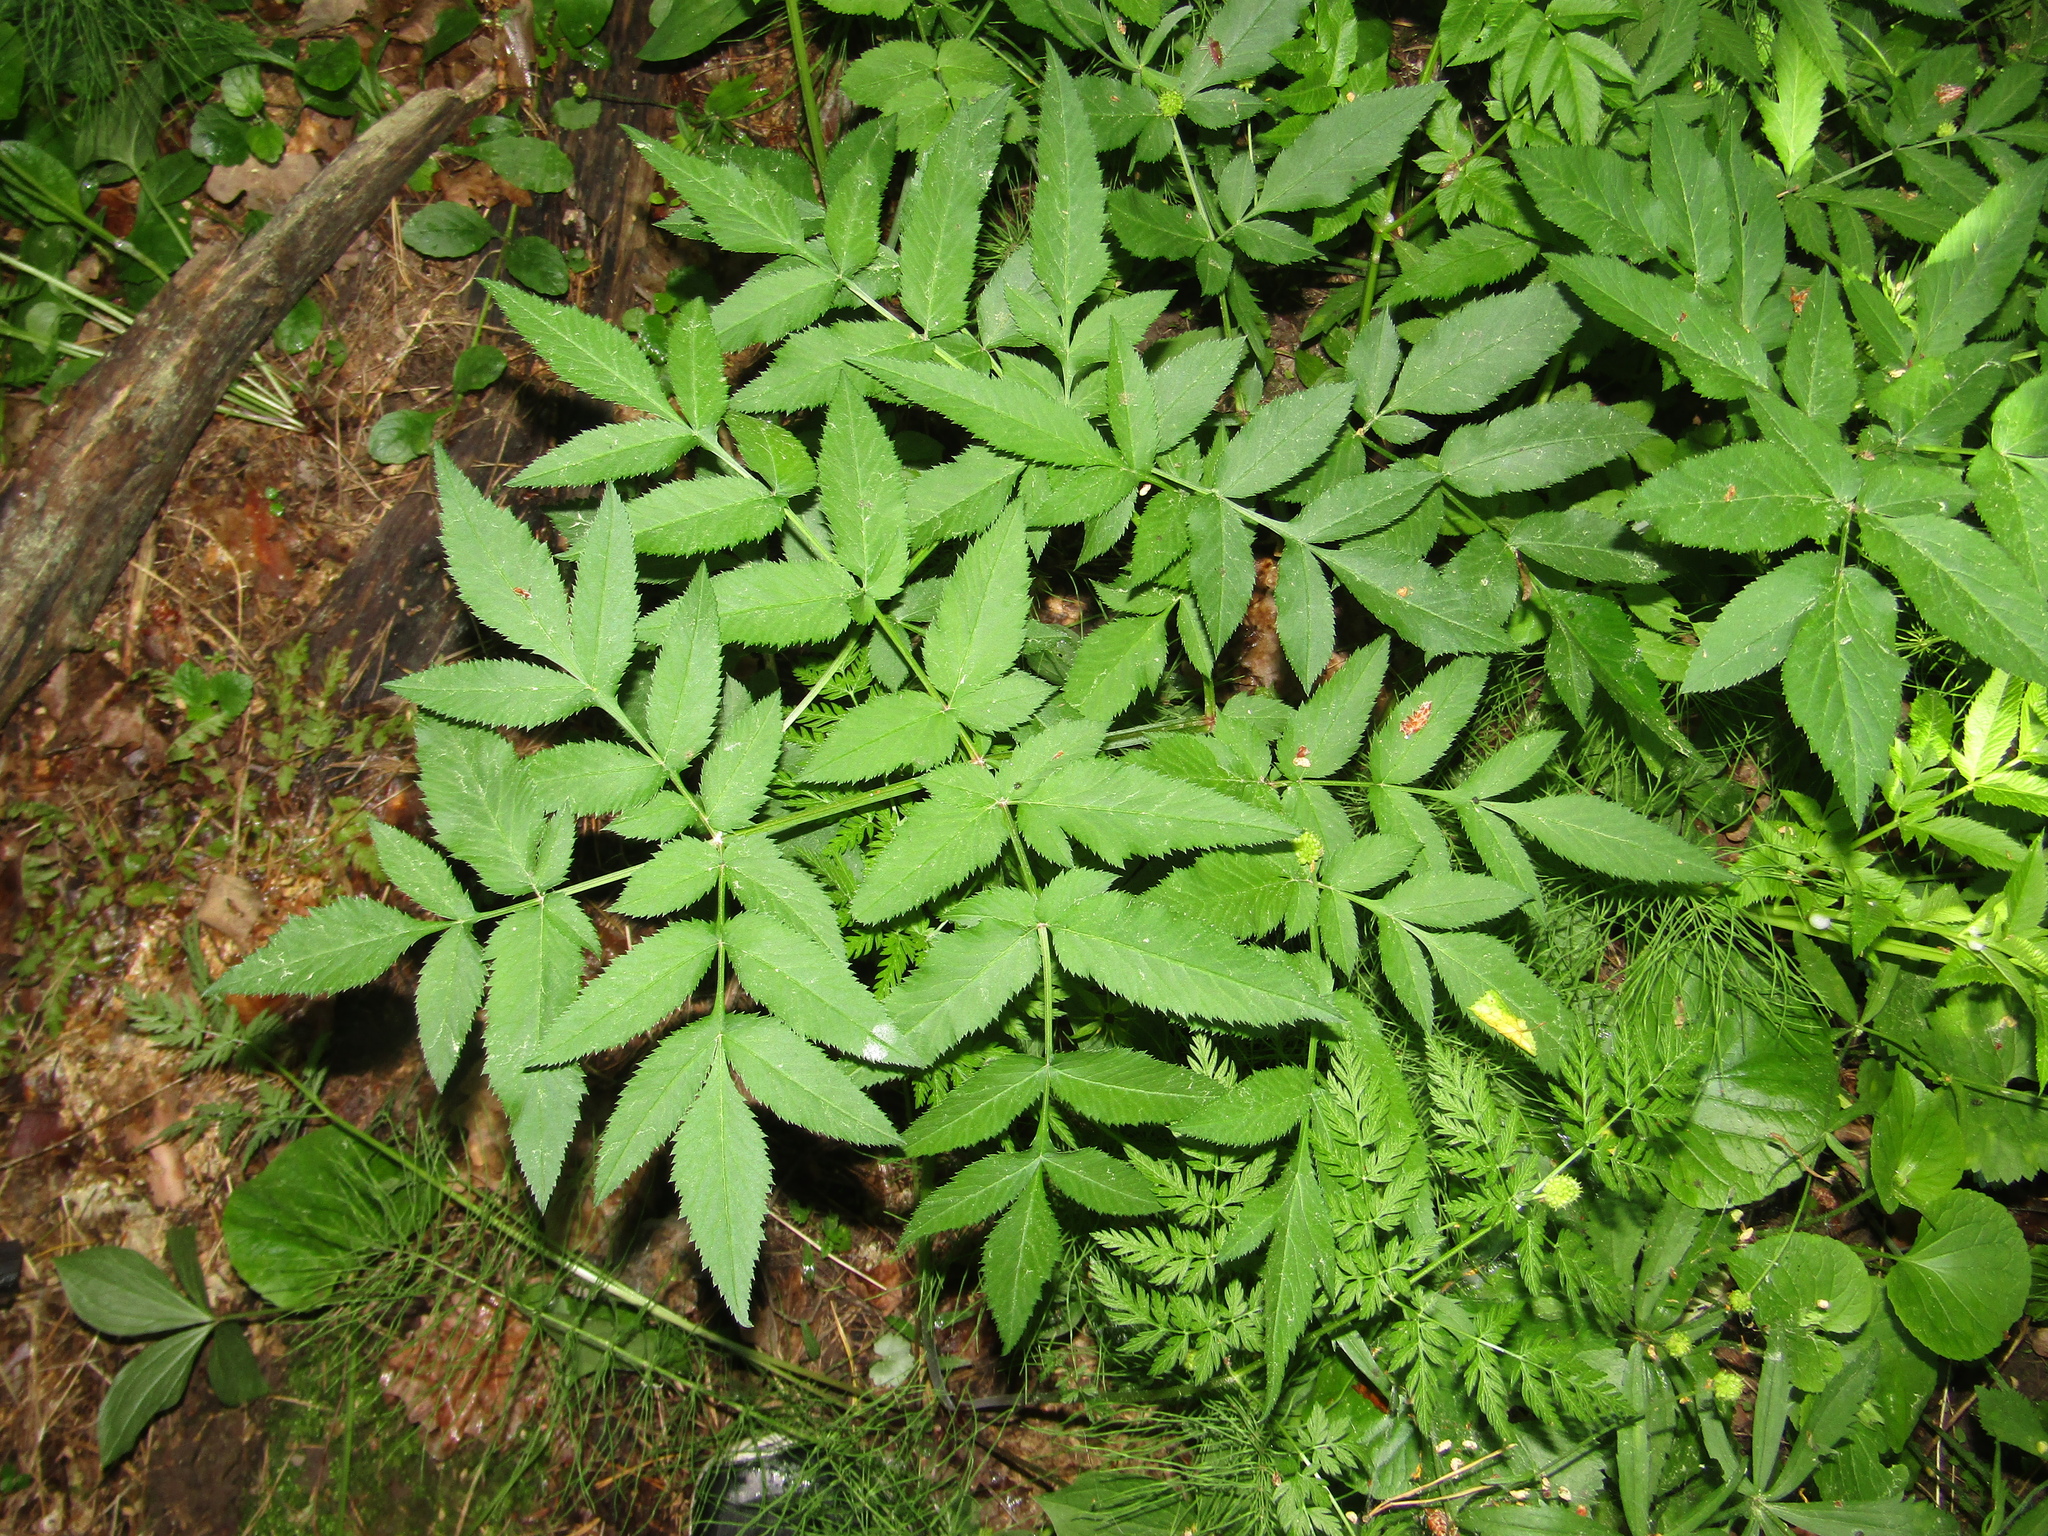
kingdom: Plantae
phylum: Tracheophyta
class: Magnoliopsida
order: Apiales
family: Apiaceae
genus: Angelica
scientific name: Angelica sylvestris
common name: Wild angelica
